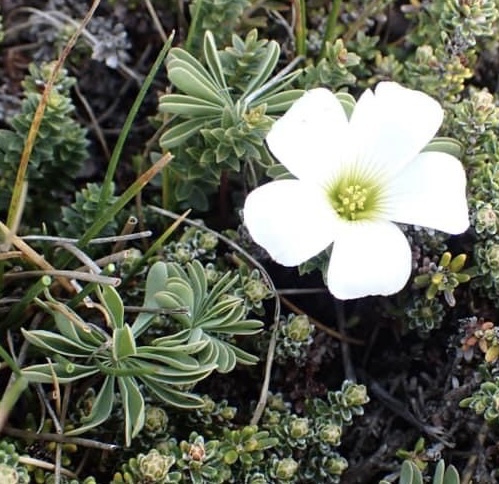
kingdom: Plantae
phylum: Tracheophyta
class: Magnoliopsida
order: Oxalidales
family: Oxalidaceae
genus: Oxalis
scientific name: Oxalis enneaphylla
